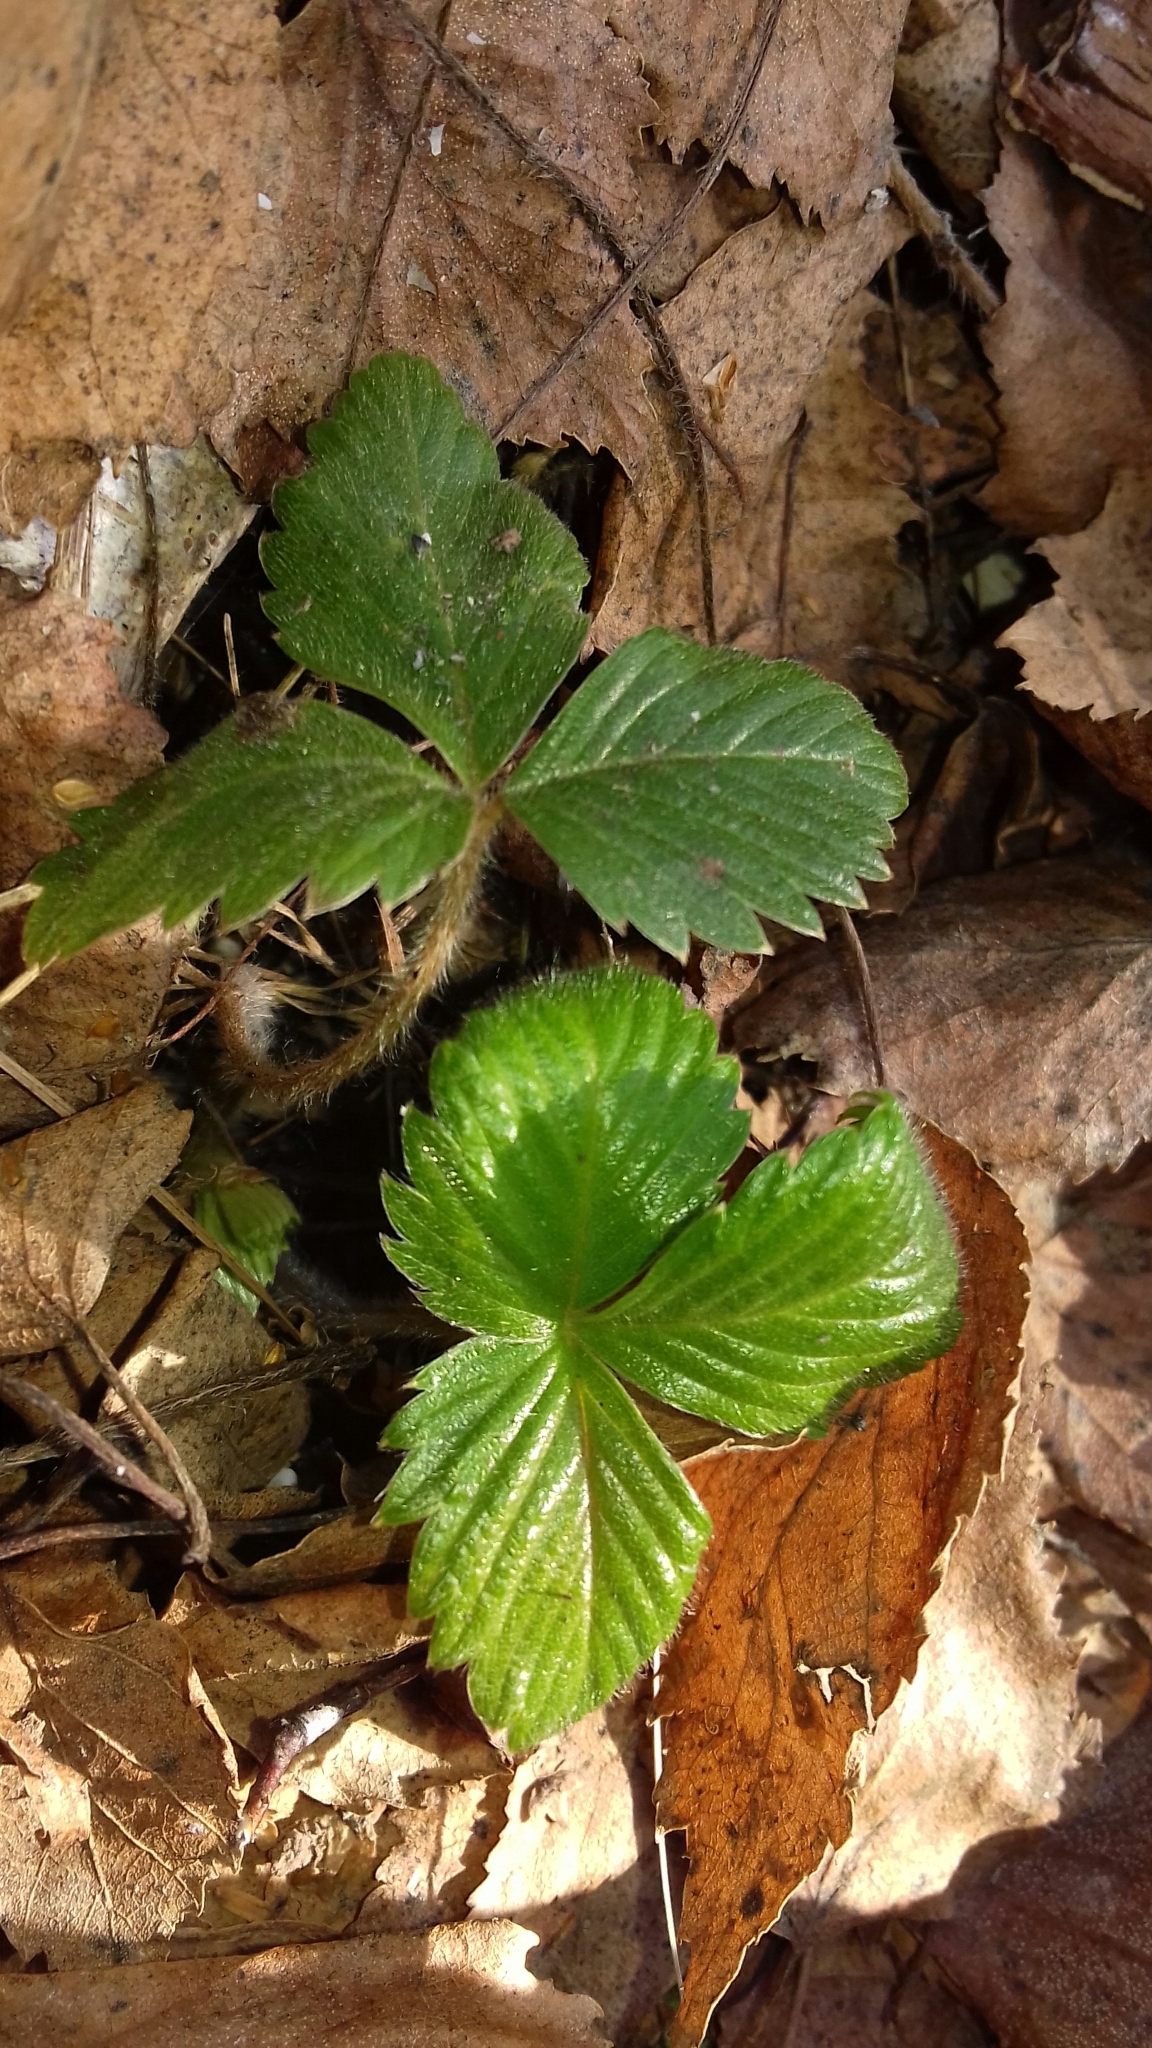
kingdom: Plantae
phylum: Tracheophyta
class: Magnoliopsida
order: Rosales
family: Rosaceae
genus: Fragaria
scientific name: Fragaria vesca
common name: Wild strawberry
